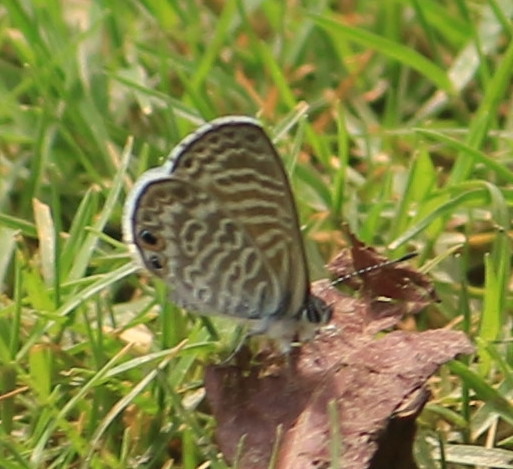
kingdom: Animalia
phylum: Arthropoda
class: Insecta
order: Lepidoptera
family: Lycaenidae
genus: Leptotes
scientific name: Leptotes marina
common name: Marine blue
